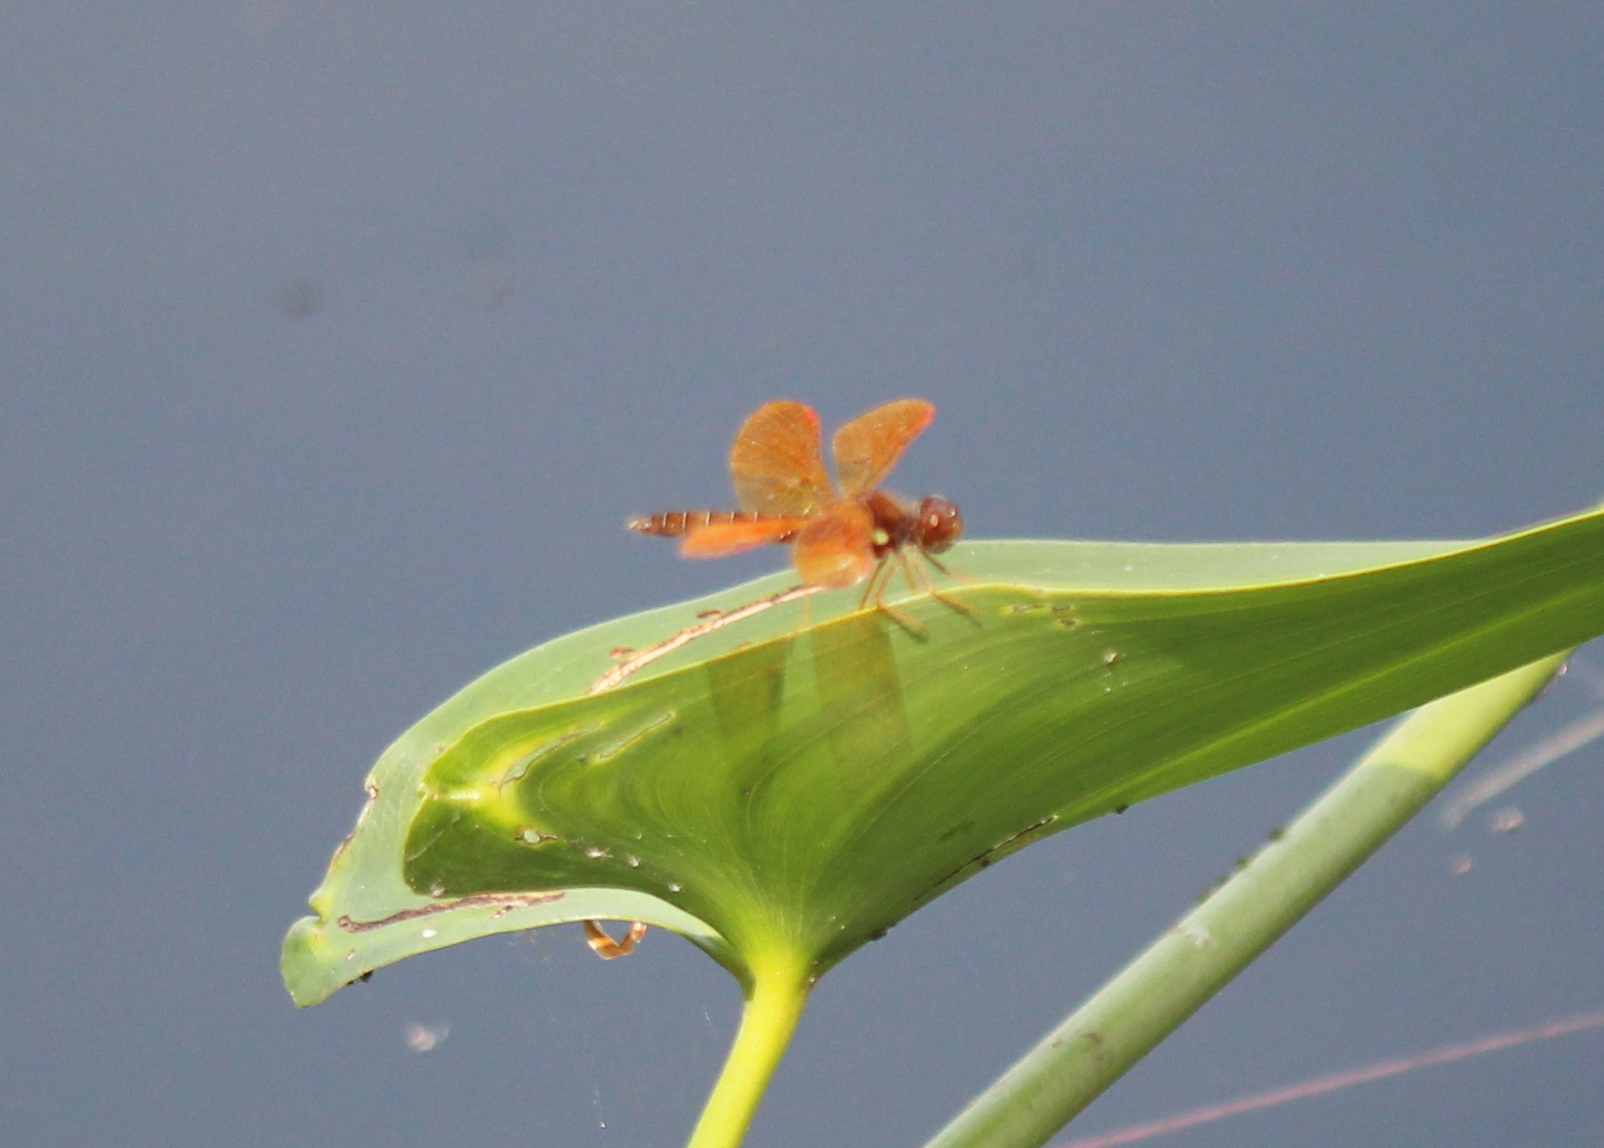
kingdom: Animalia
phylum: Arthropoda
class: Insecta
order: Odonata
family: Libellulidae
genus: Perithemis
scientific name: Perithemis tenera
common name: Eastern amberwing
